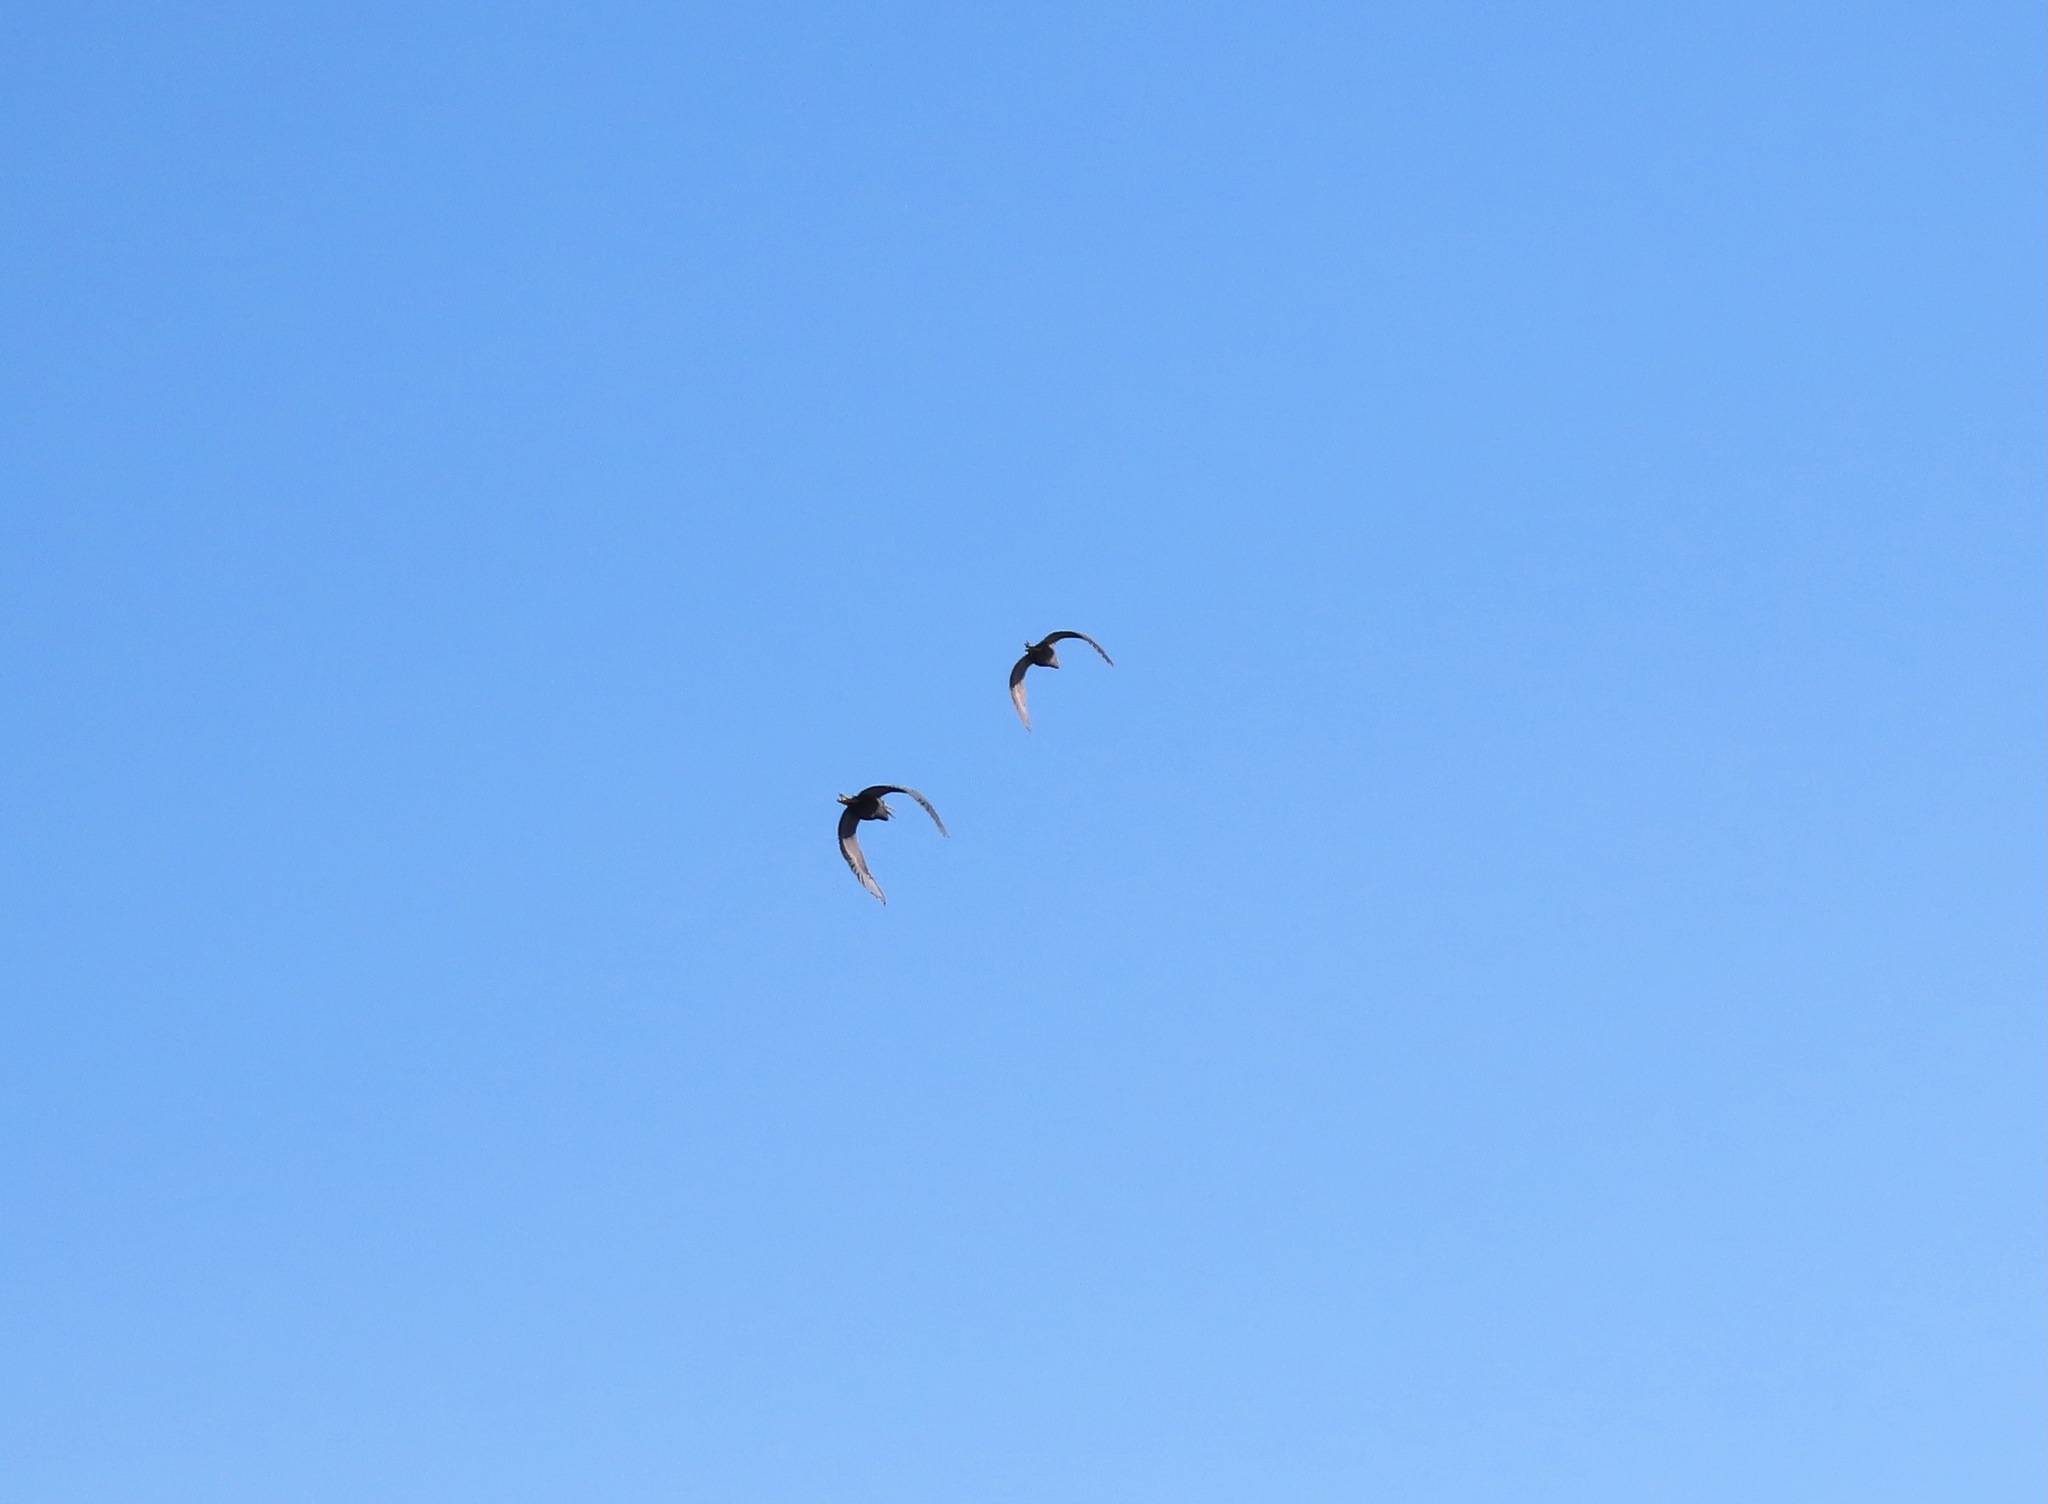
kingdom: Animalia
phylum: Chordata
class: Aves
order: Pelecaniformes
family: Ardeidae
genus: Egretta
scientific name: Egretta sacra
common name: Pacific reef heron
